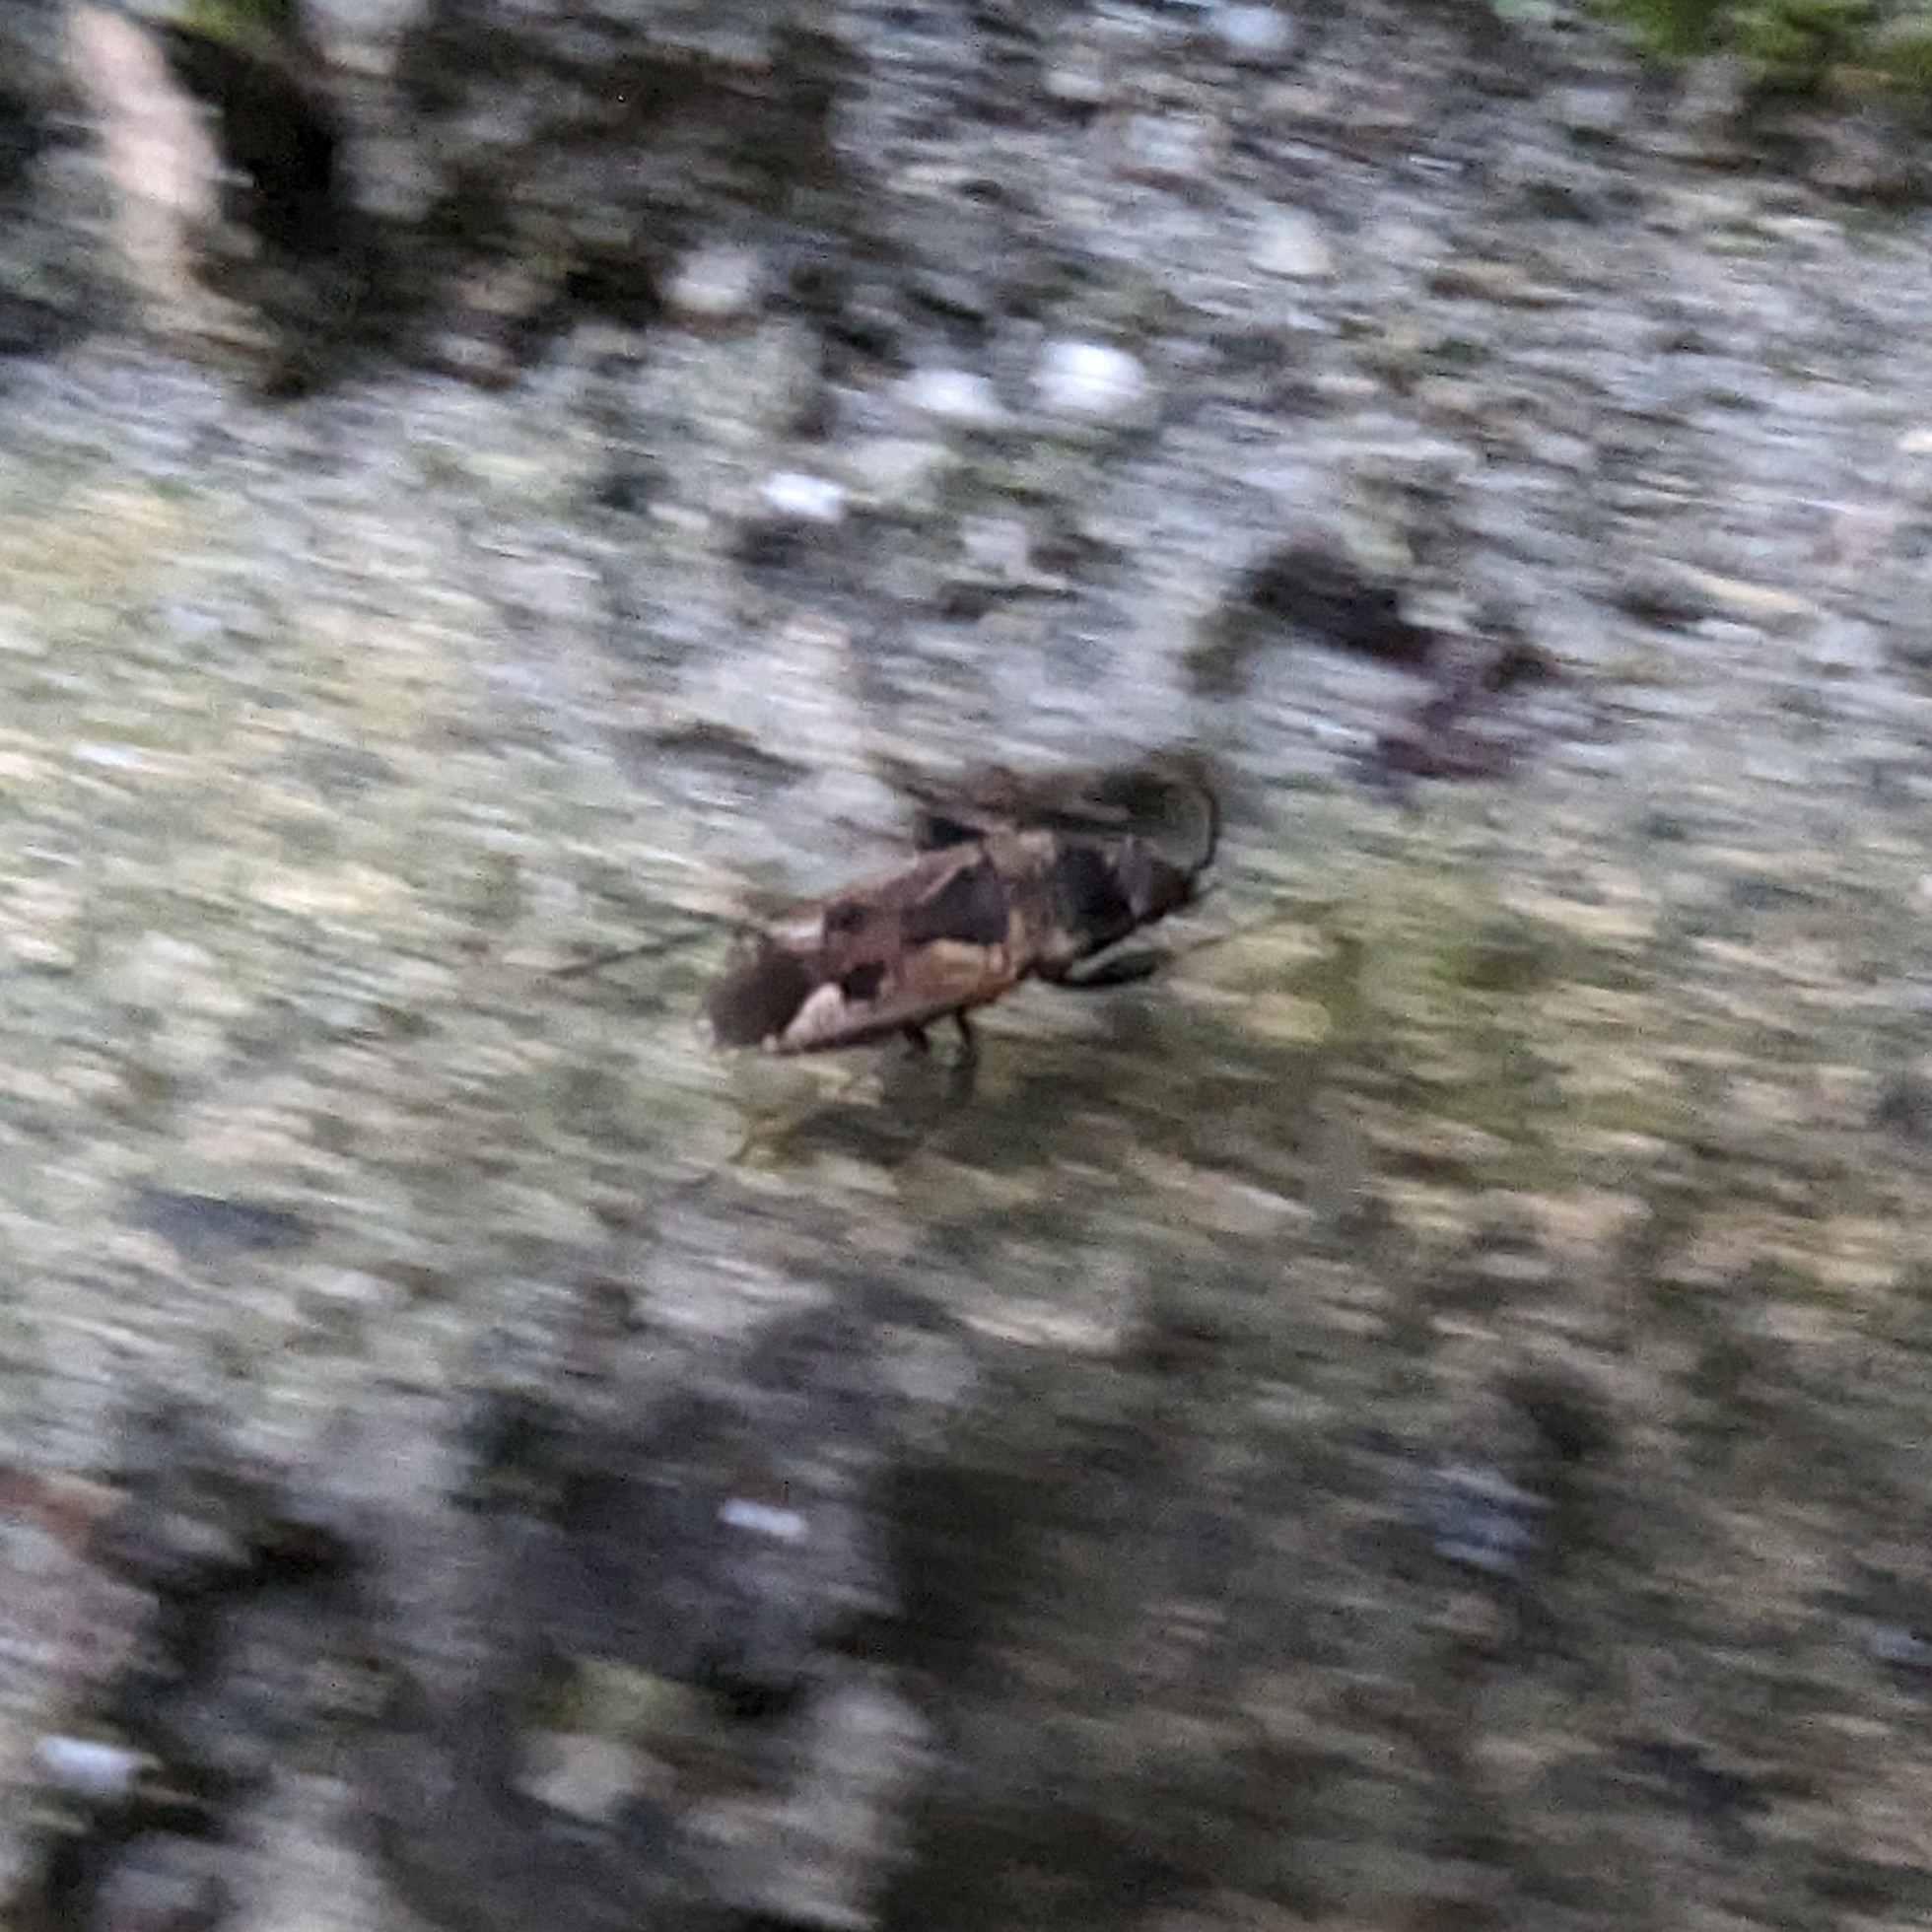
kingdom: Animalia
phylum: Arthropoda
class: Insecta
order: Hemiptera
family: Rhyparochromidae
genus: Rhyparochromus
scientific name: Rhyparochromus vulgaris
